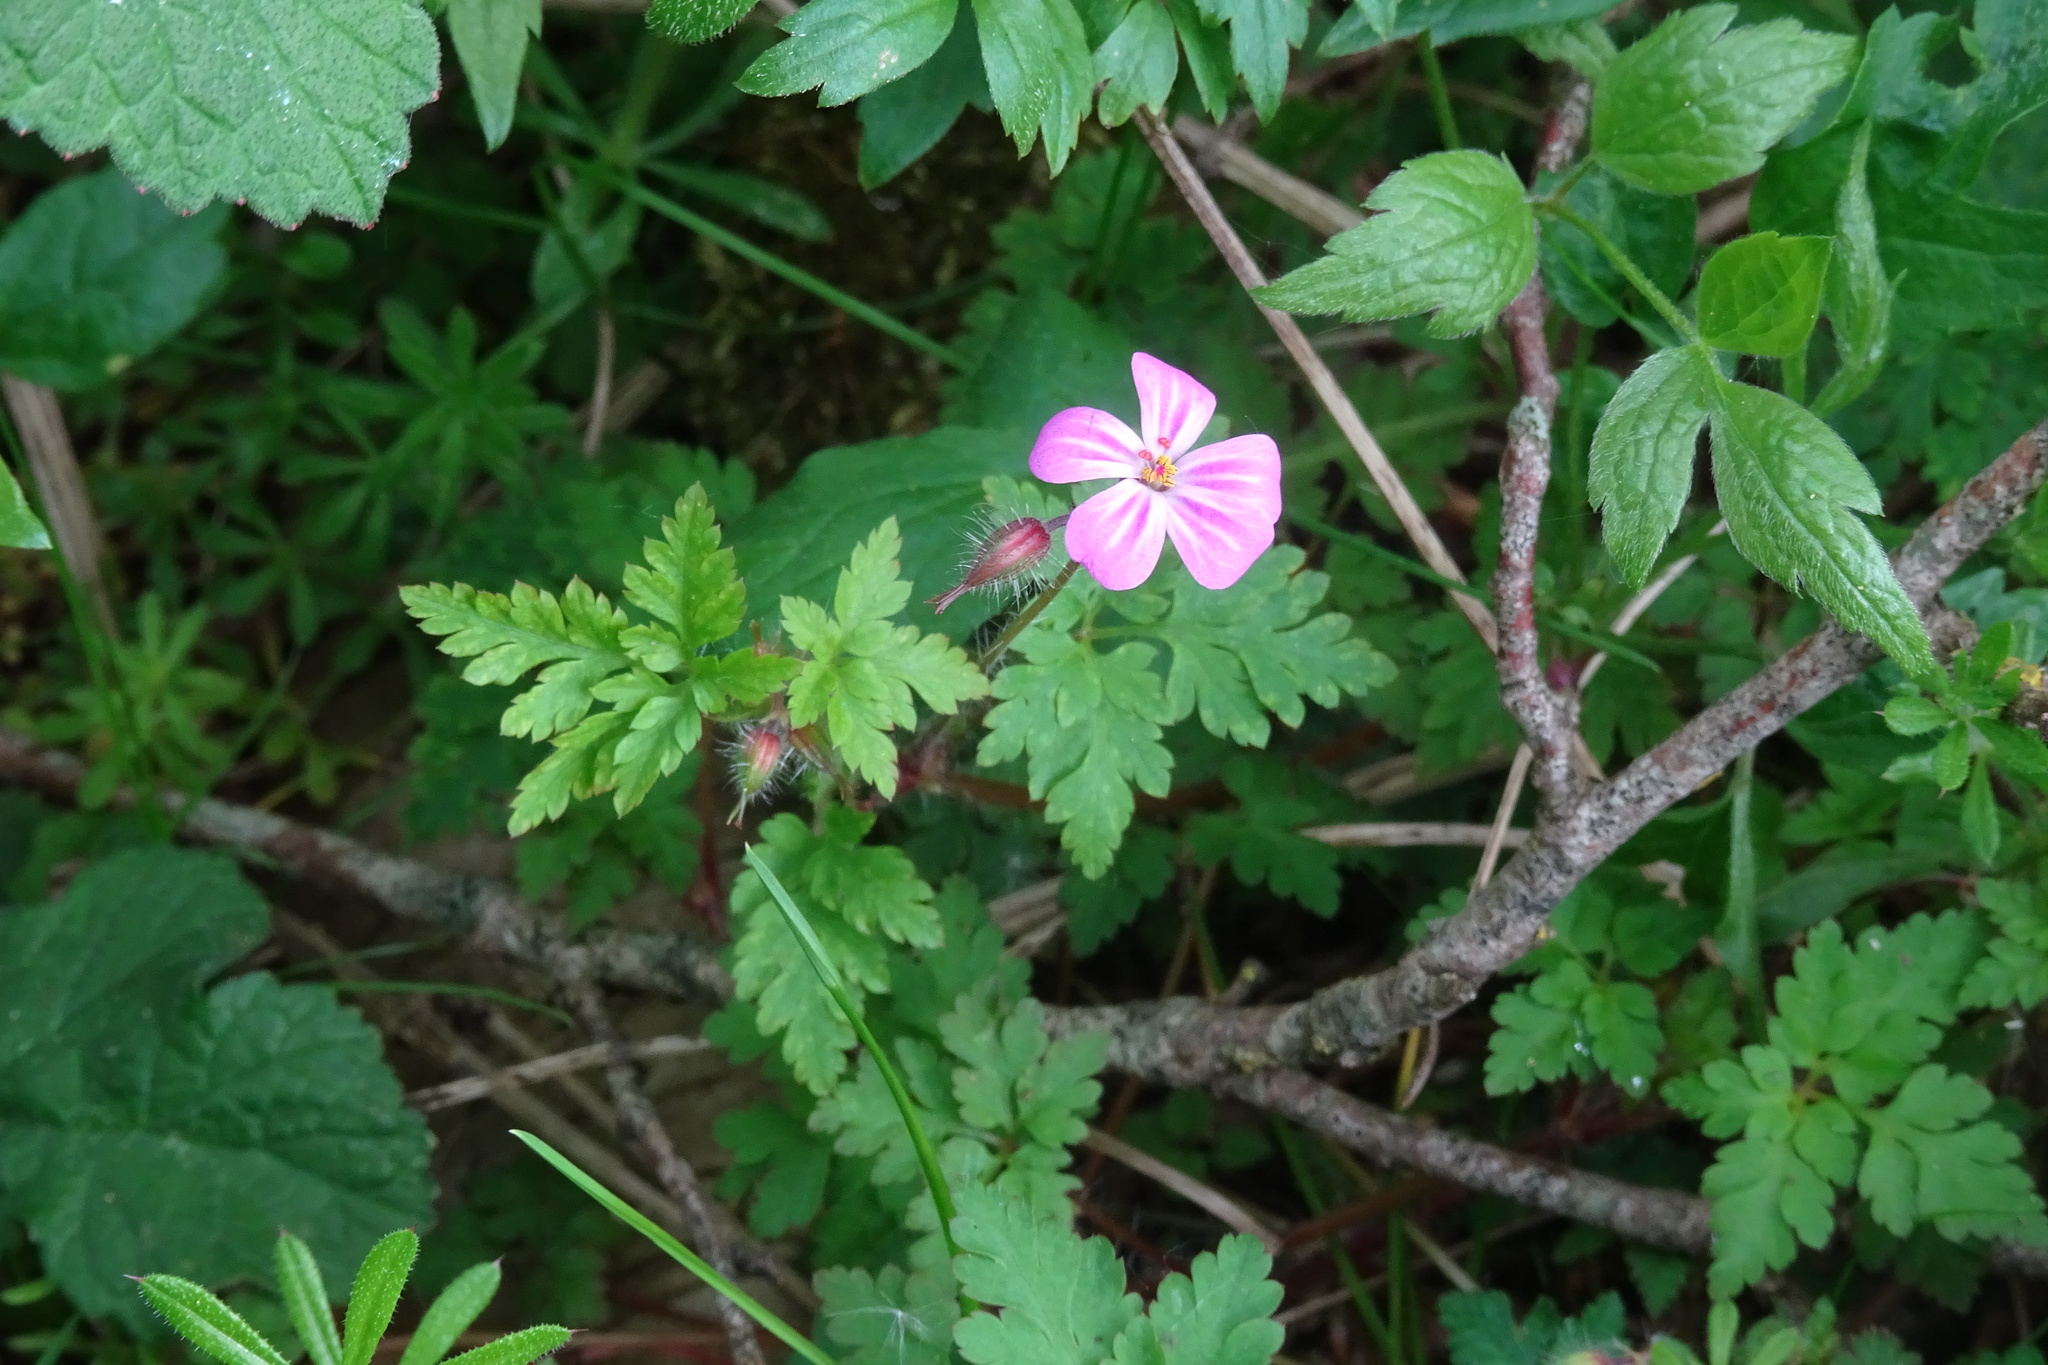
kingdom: Plantae
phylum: Tracheophyta
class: Magnoliopsida
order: Geraniales
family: Geraniaceae
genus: Geranium
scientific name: Geranium robertianum
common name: Herb-robert
